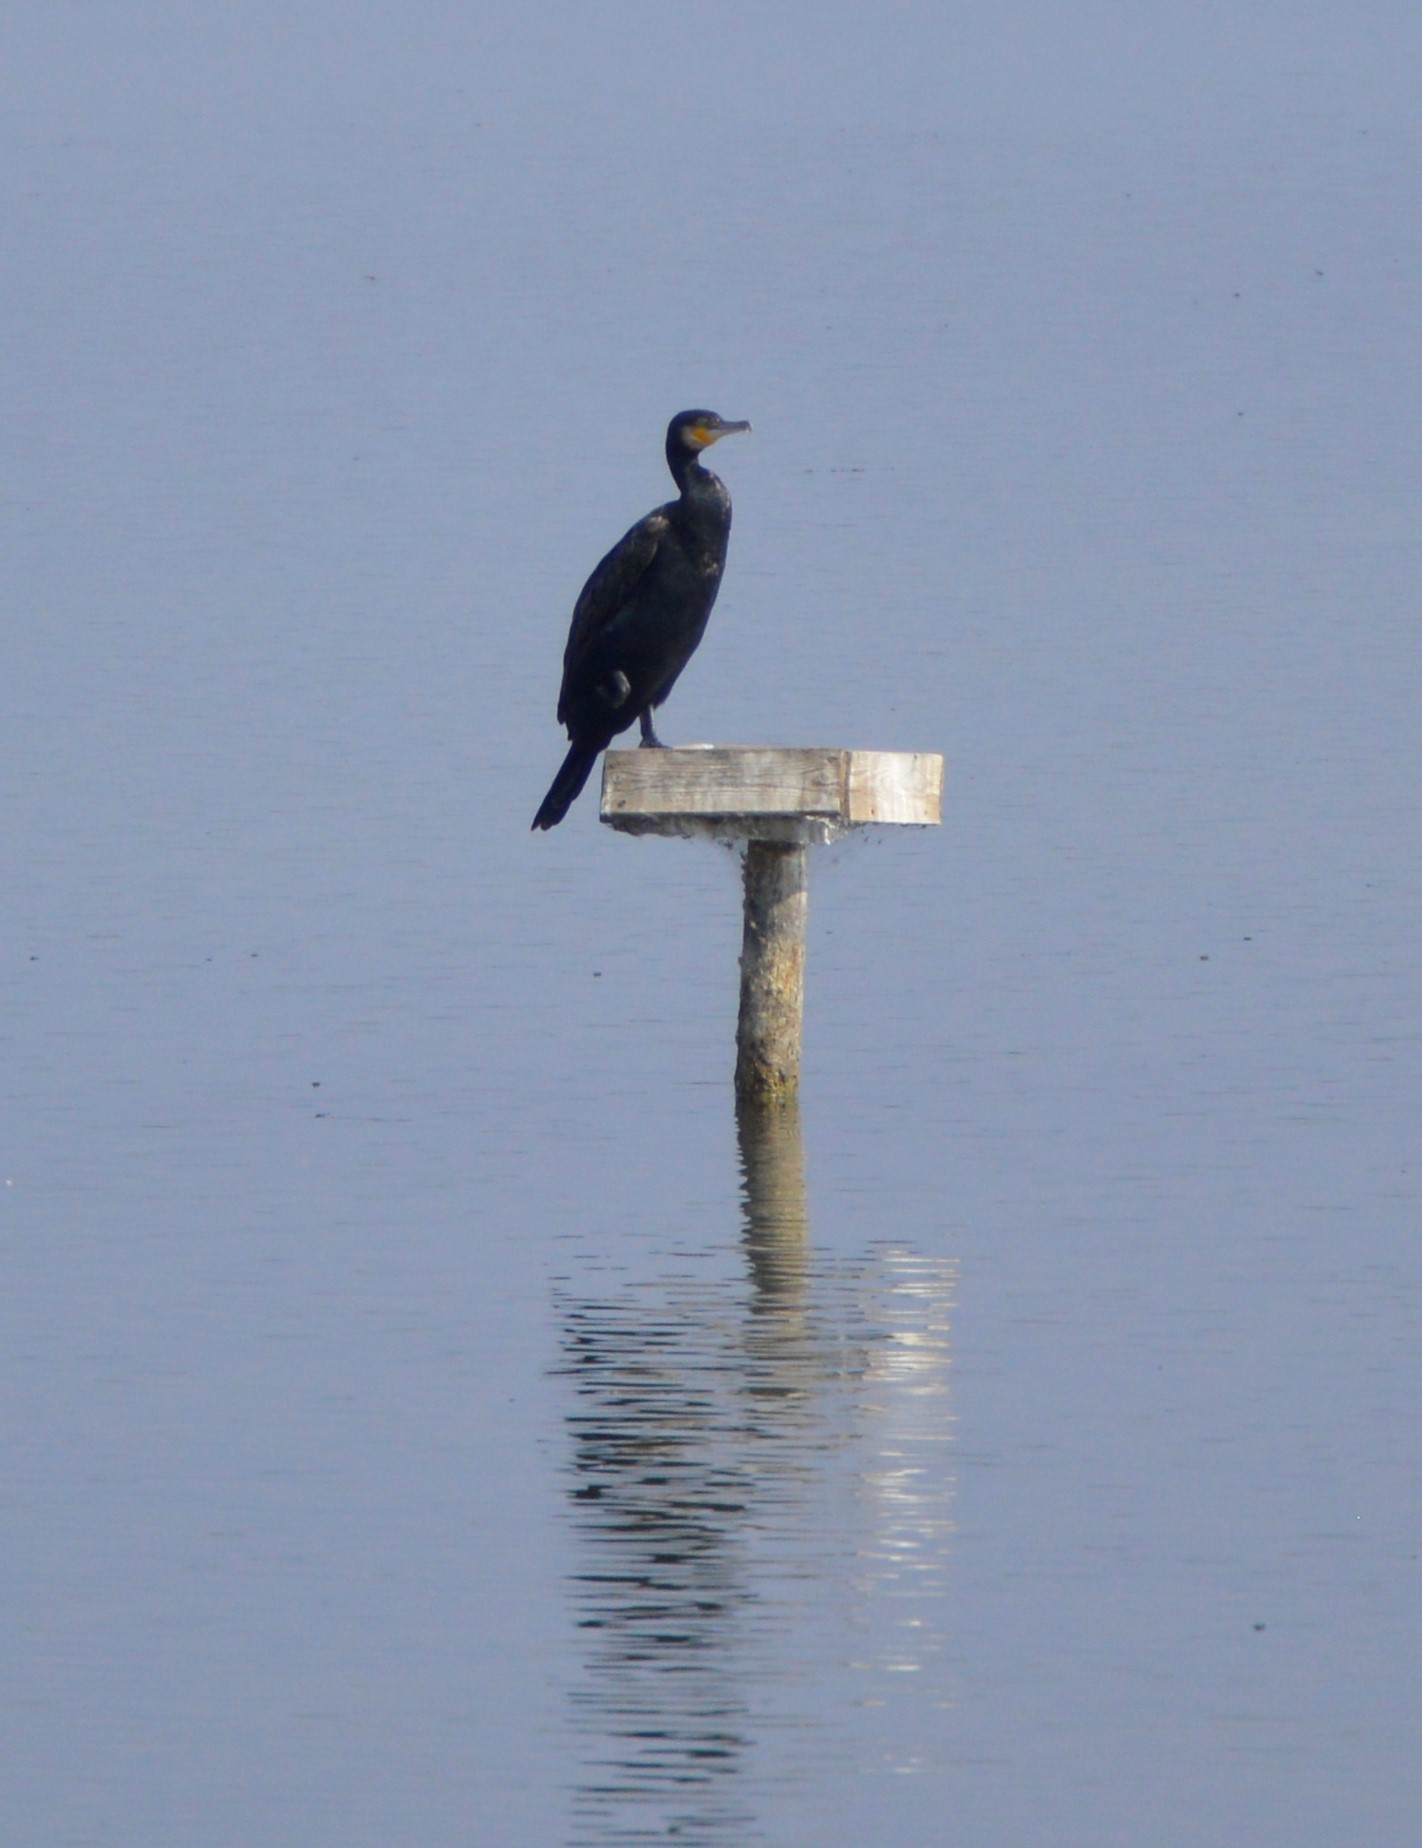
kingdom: Animalia
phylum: Chordata
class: Aves
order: Suliformes
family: Phalacrocoracidae
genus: Phalacrocorax
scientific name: Phalacrocorax carbo
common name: Great cormorant
